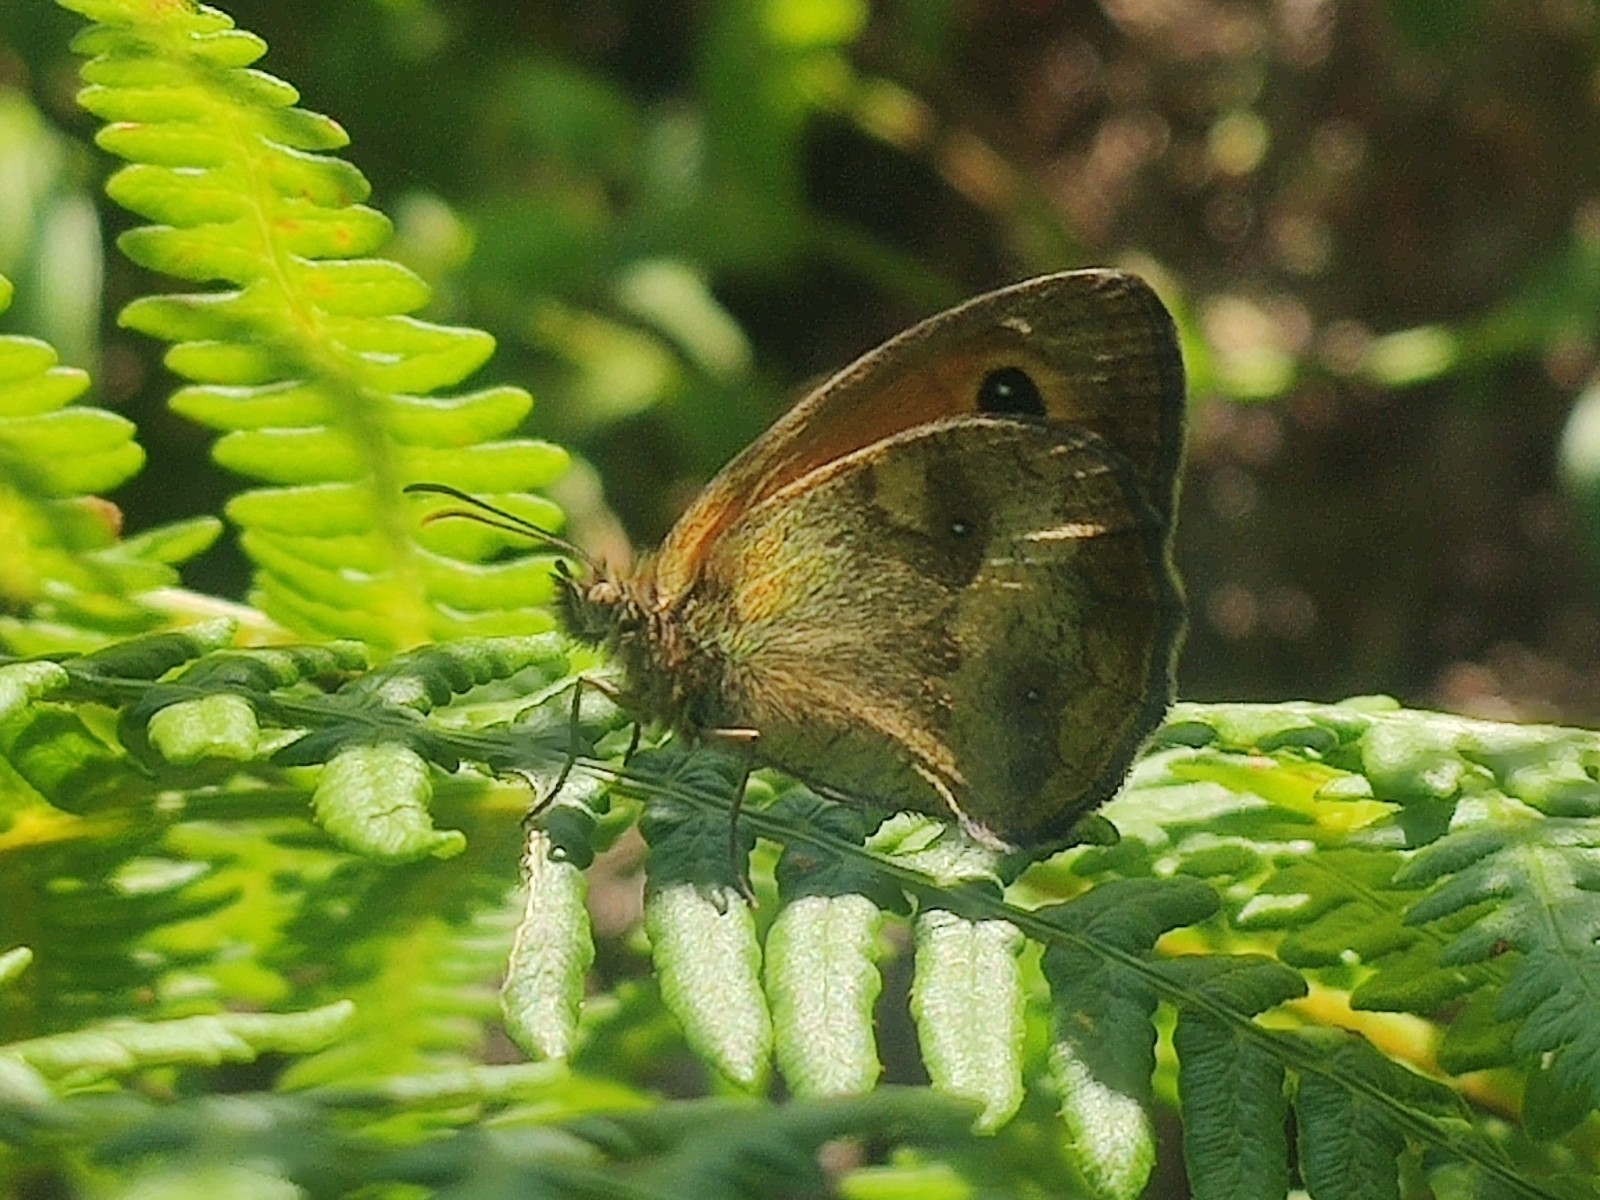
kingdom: Animalia
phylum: Arthropoda
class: Insecta
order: Lepidoptera
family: Nymphalidae
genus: Pyronia
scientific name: Pyronia tithonus
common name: Gatekeeper
